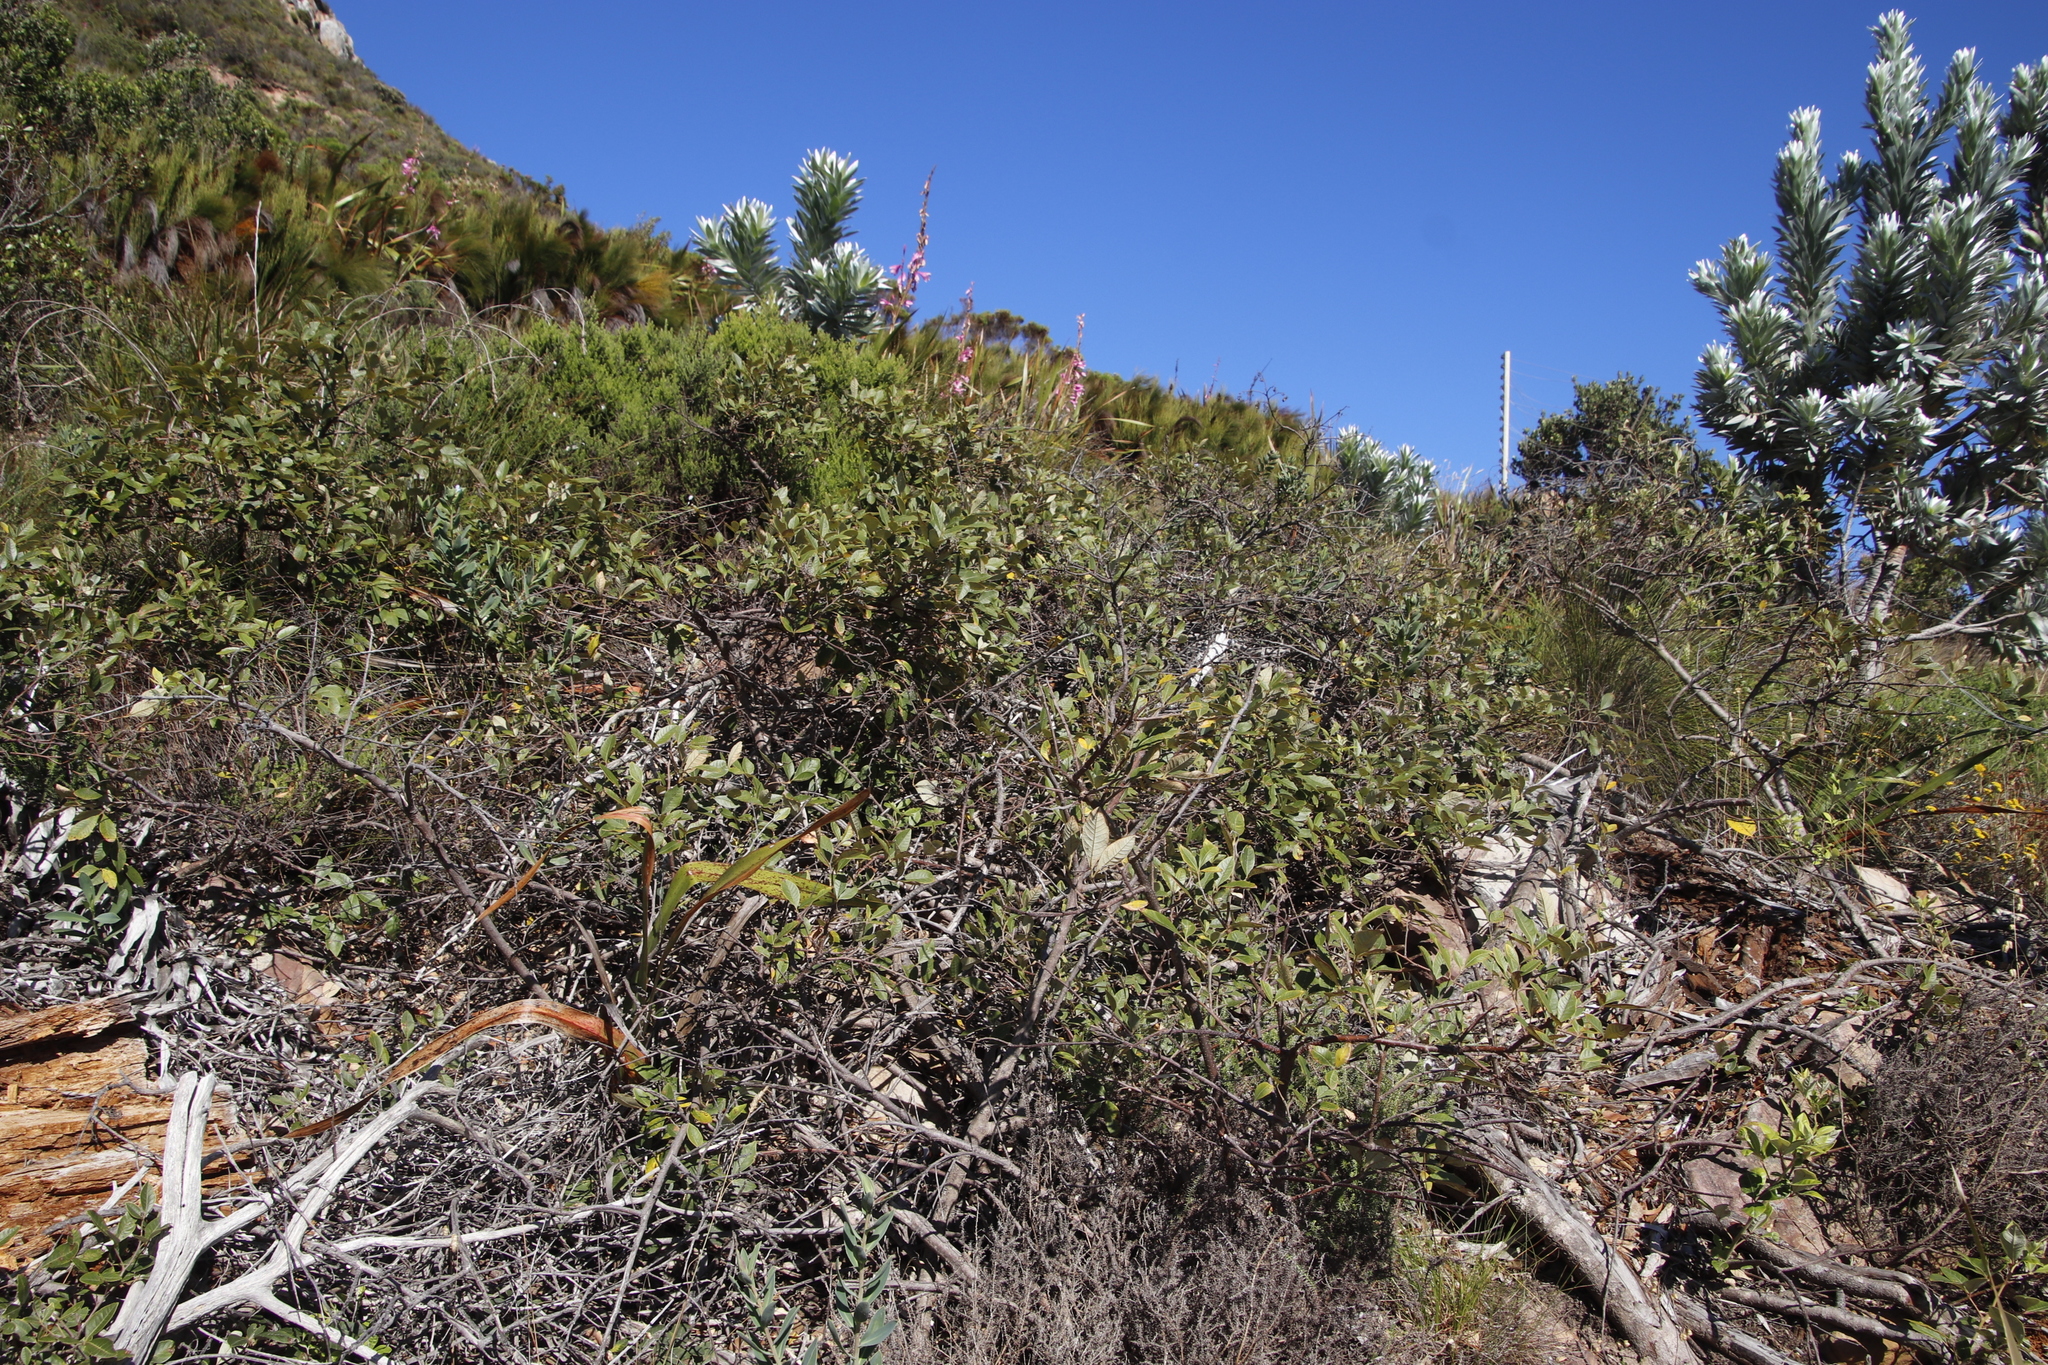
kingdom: Plantae
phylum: Tracheophyta
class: Magnoliopsida
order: Sapindales
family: Anacardiaceae
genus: Searsia
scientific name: Searsia tomentosa
